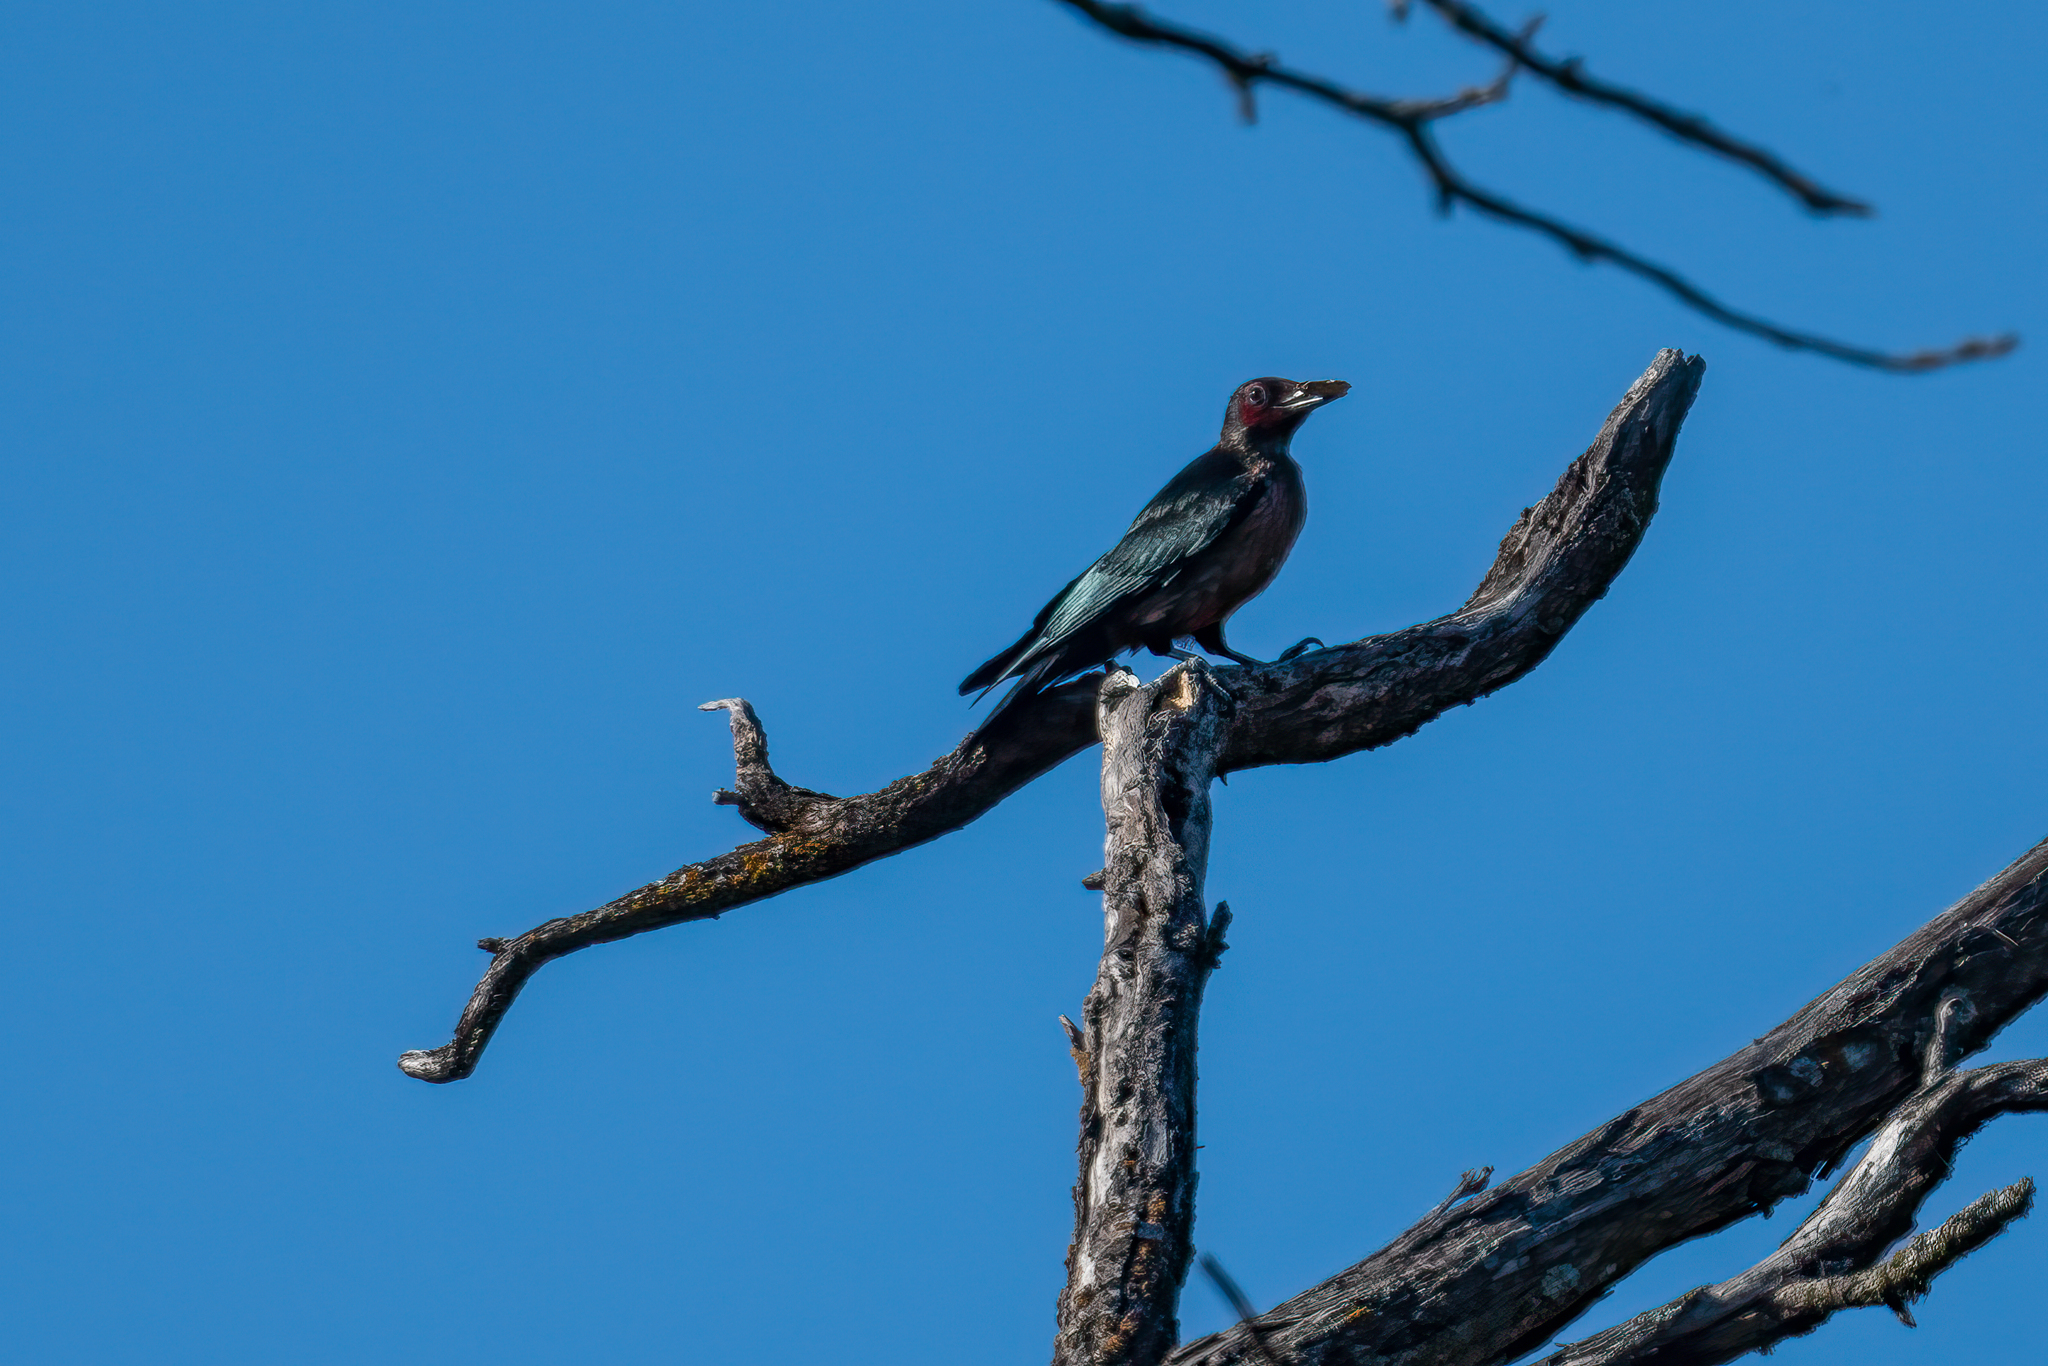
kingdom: Animalia
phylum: Chordata
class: Aves
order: Piciformes
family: Picidae
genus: Melanerpes
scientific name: Melanerpes lewis
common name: Lewis's woodpecker
